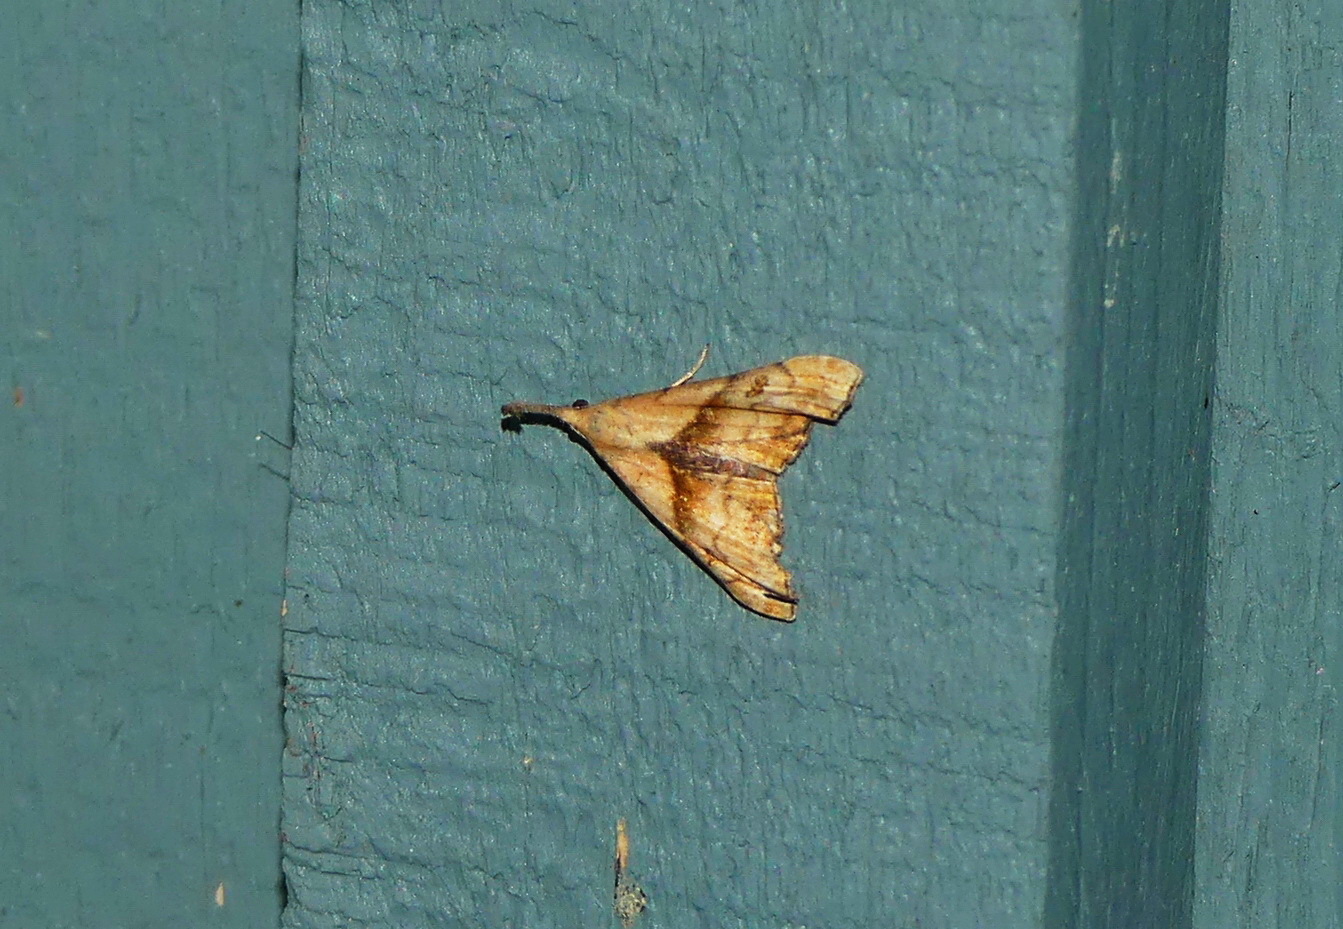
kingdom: Animalia
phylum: Arthropoda
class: Insecta
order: Lepidoptera
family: Erebidae
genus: Palthis
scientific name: Palthis angulalis
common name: Dark-spotted palthis moth
